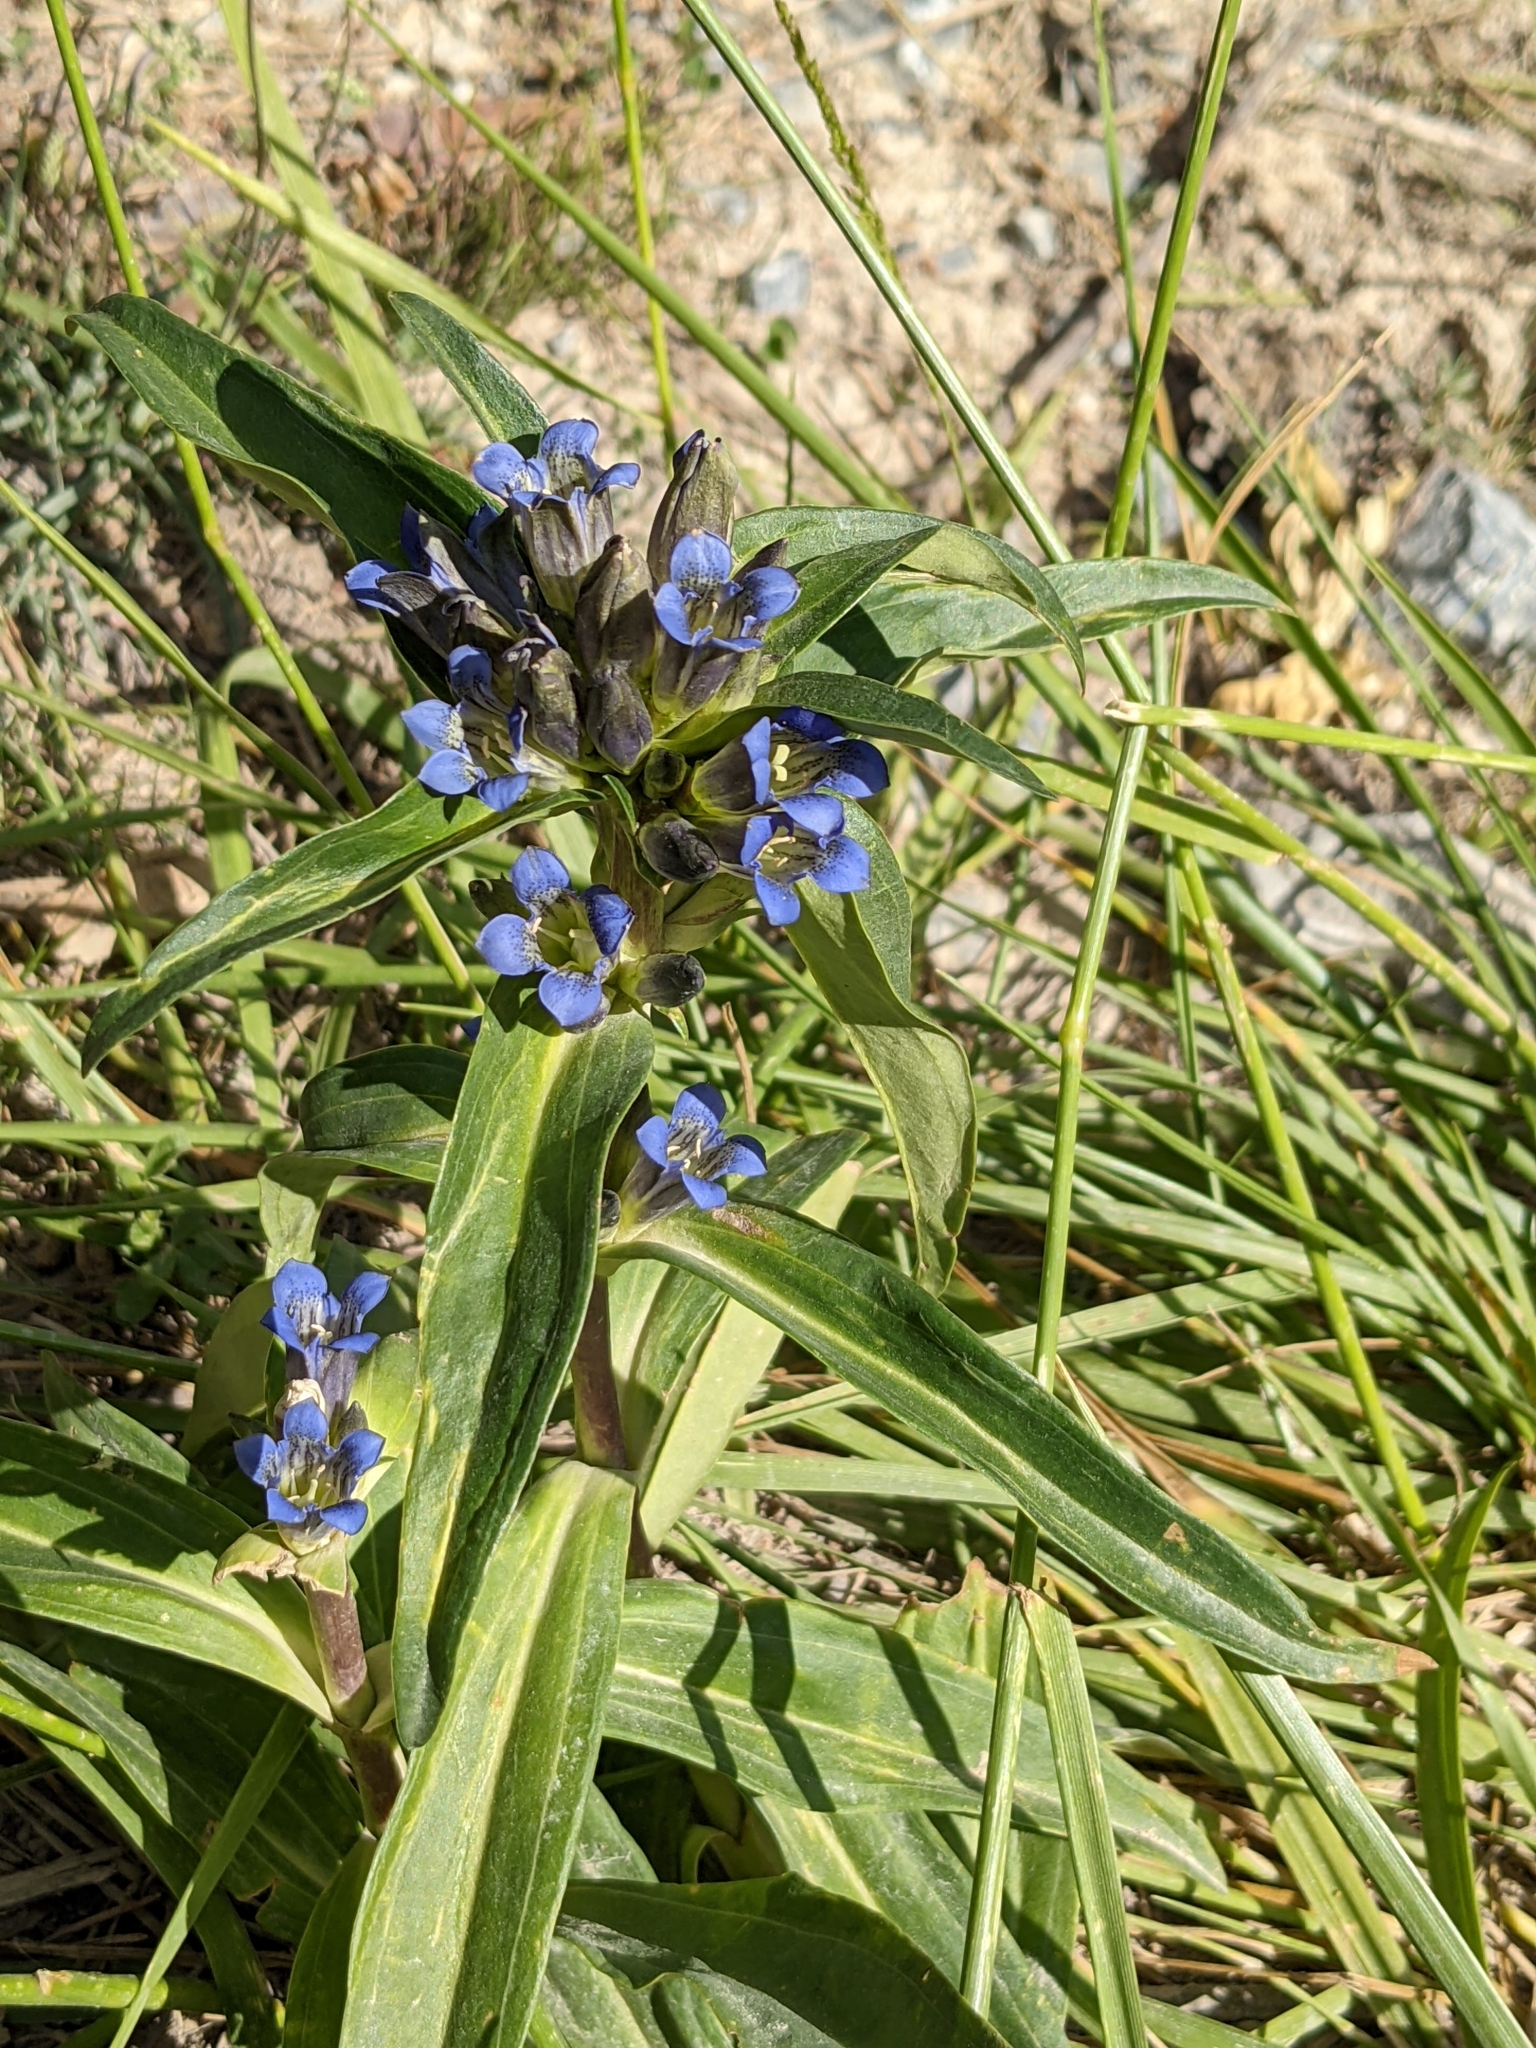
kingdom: Plantae
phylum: Tracheophyta
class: Magnoliopsida
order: Gentianales
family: Gentianaceae
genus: Gentiana
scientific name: Gentiana cruciata
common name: Cross gentian
